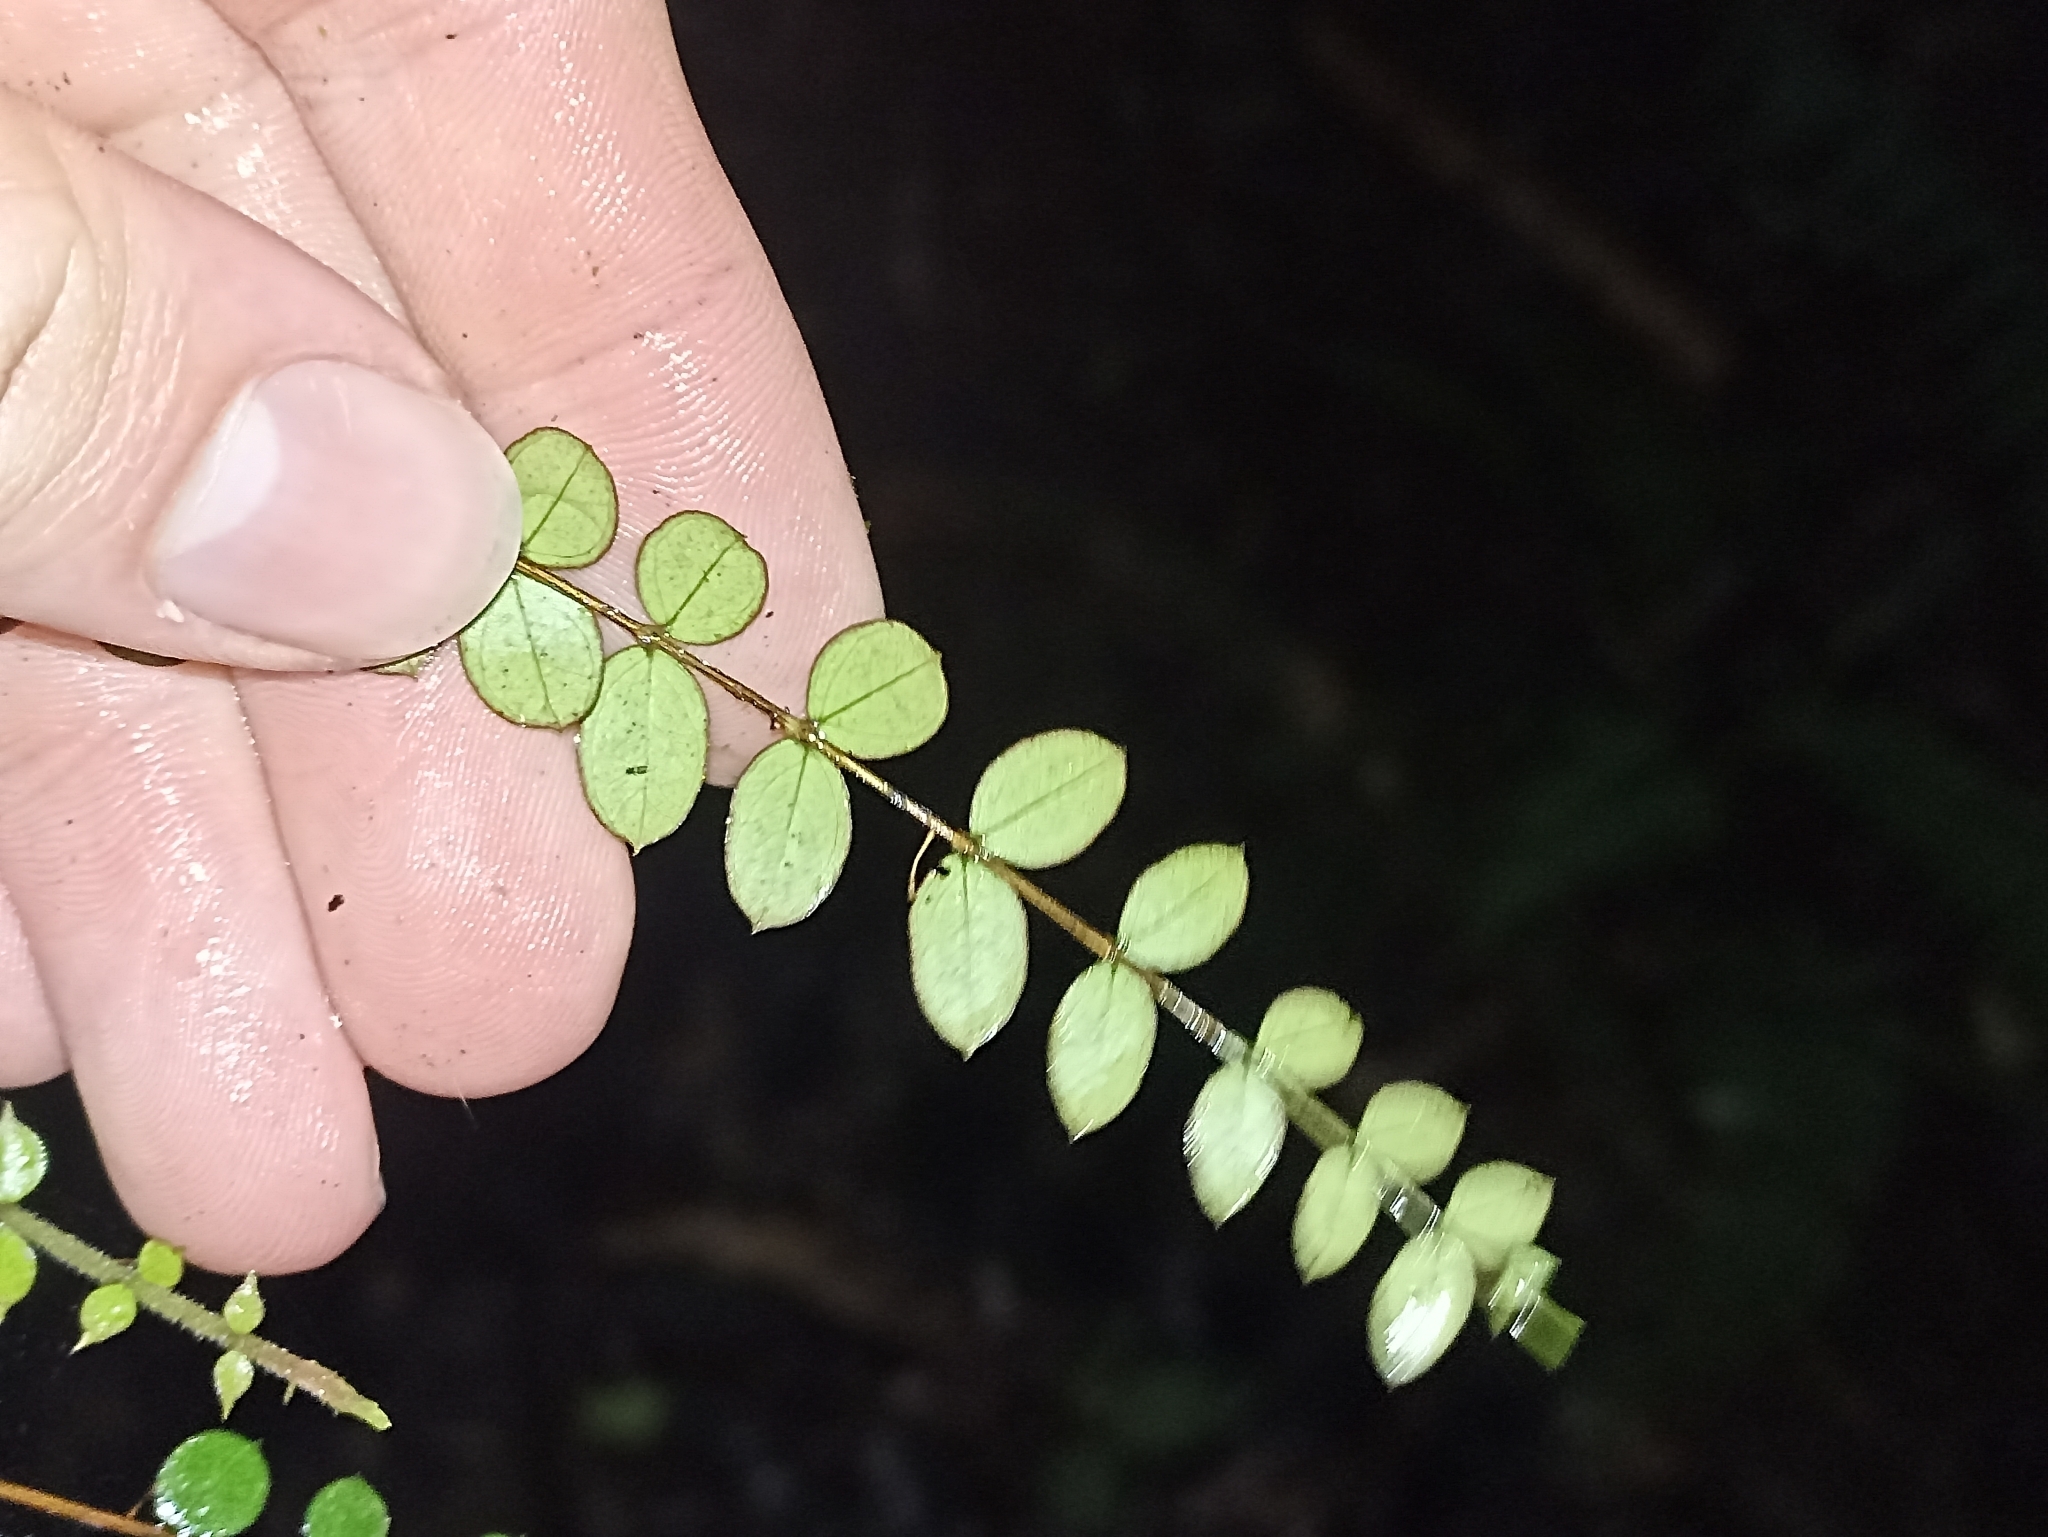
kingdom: Plantae
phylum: Tracheophyta
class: Magnoliopsida
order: Myrtales
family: Myrtaceae
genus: Metrosideros
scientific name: Metrosideros diffusa
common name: Small ratavine
